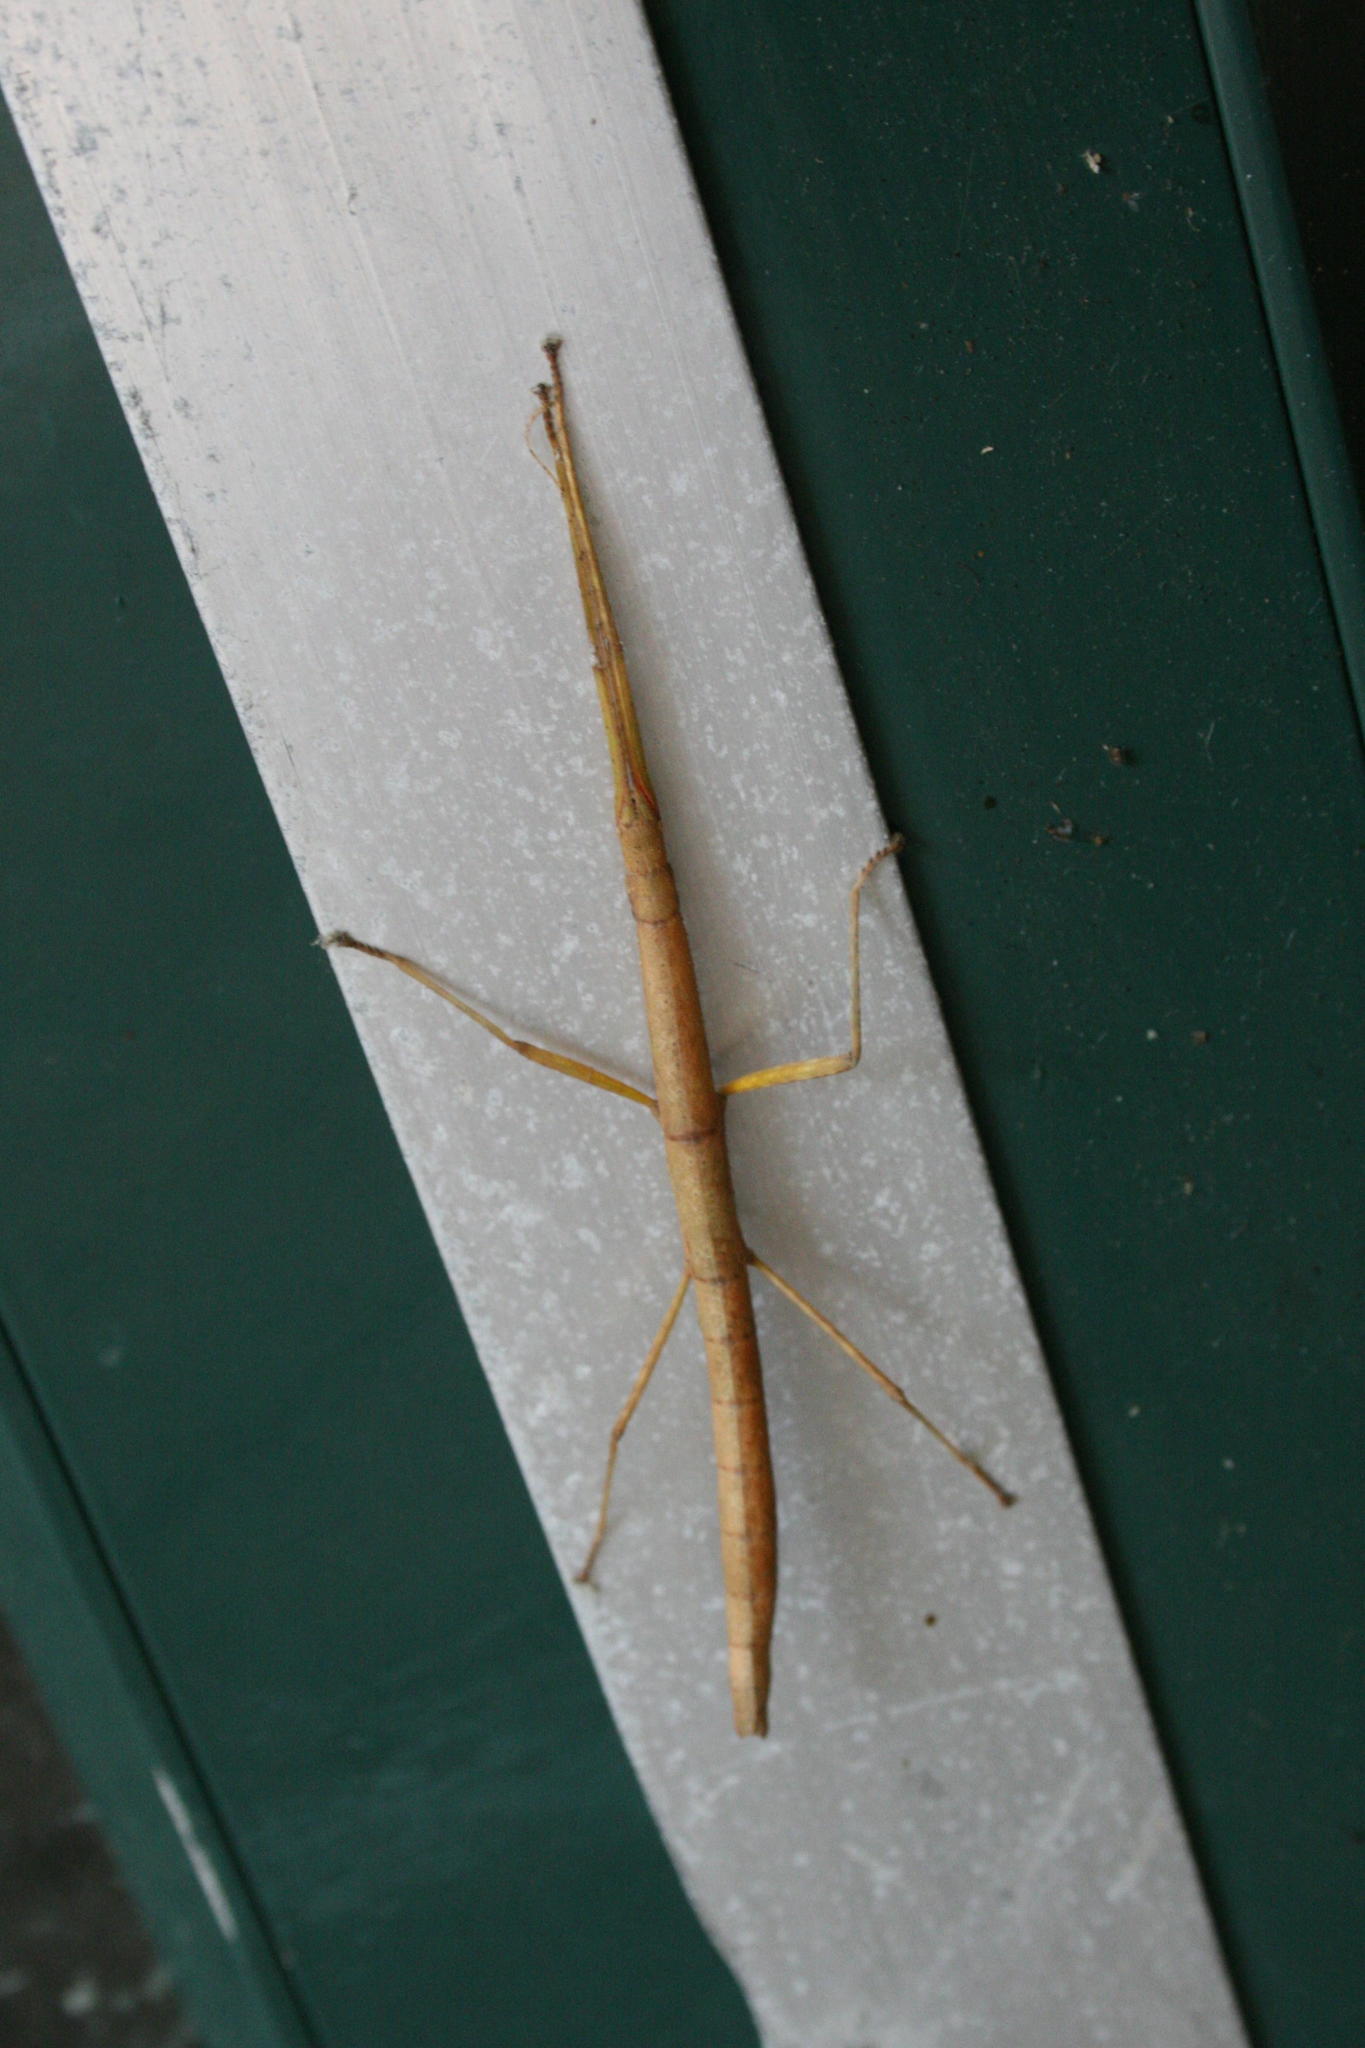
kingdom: Animalia
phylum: Arthropoda
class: Insecta
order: Phasmida
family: Lonchodidae
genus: Carausius
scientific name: Carausius morosus
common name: Indian stick insect
